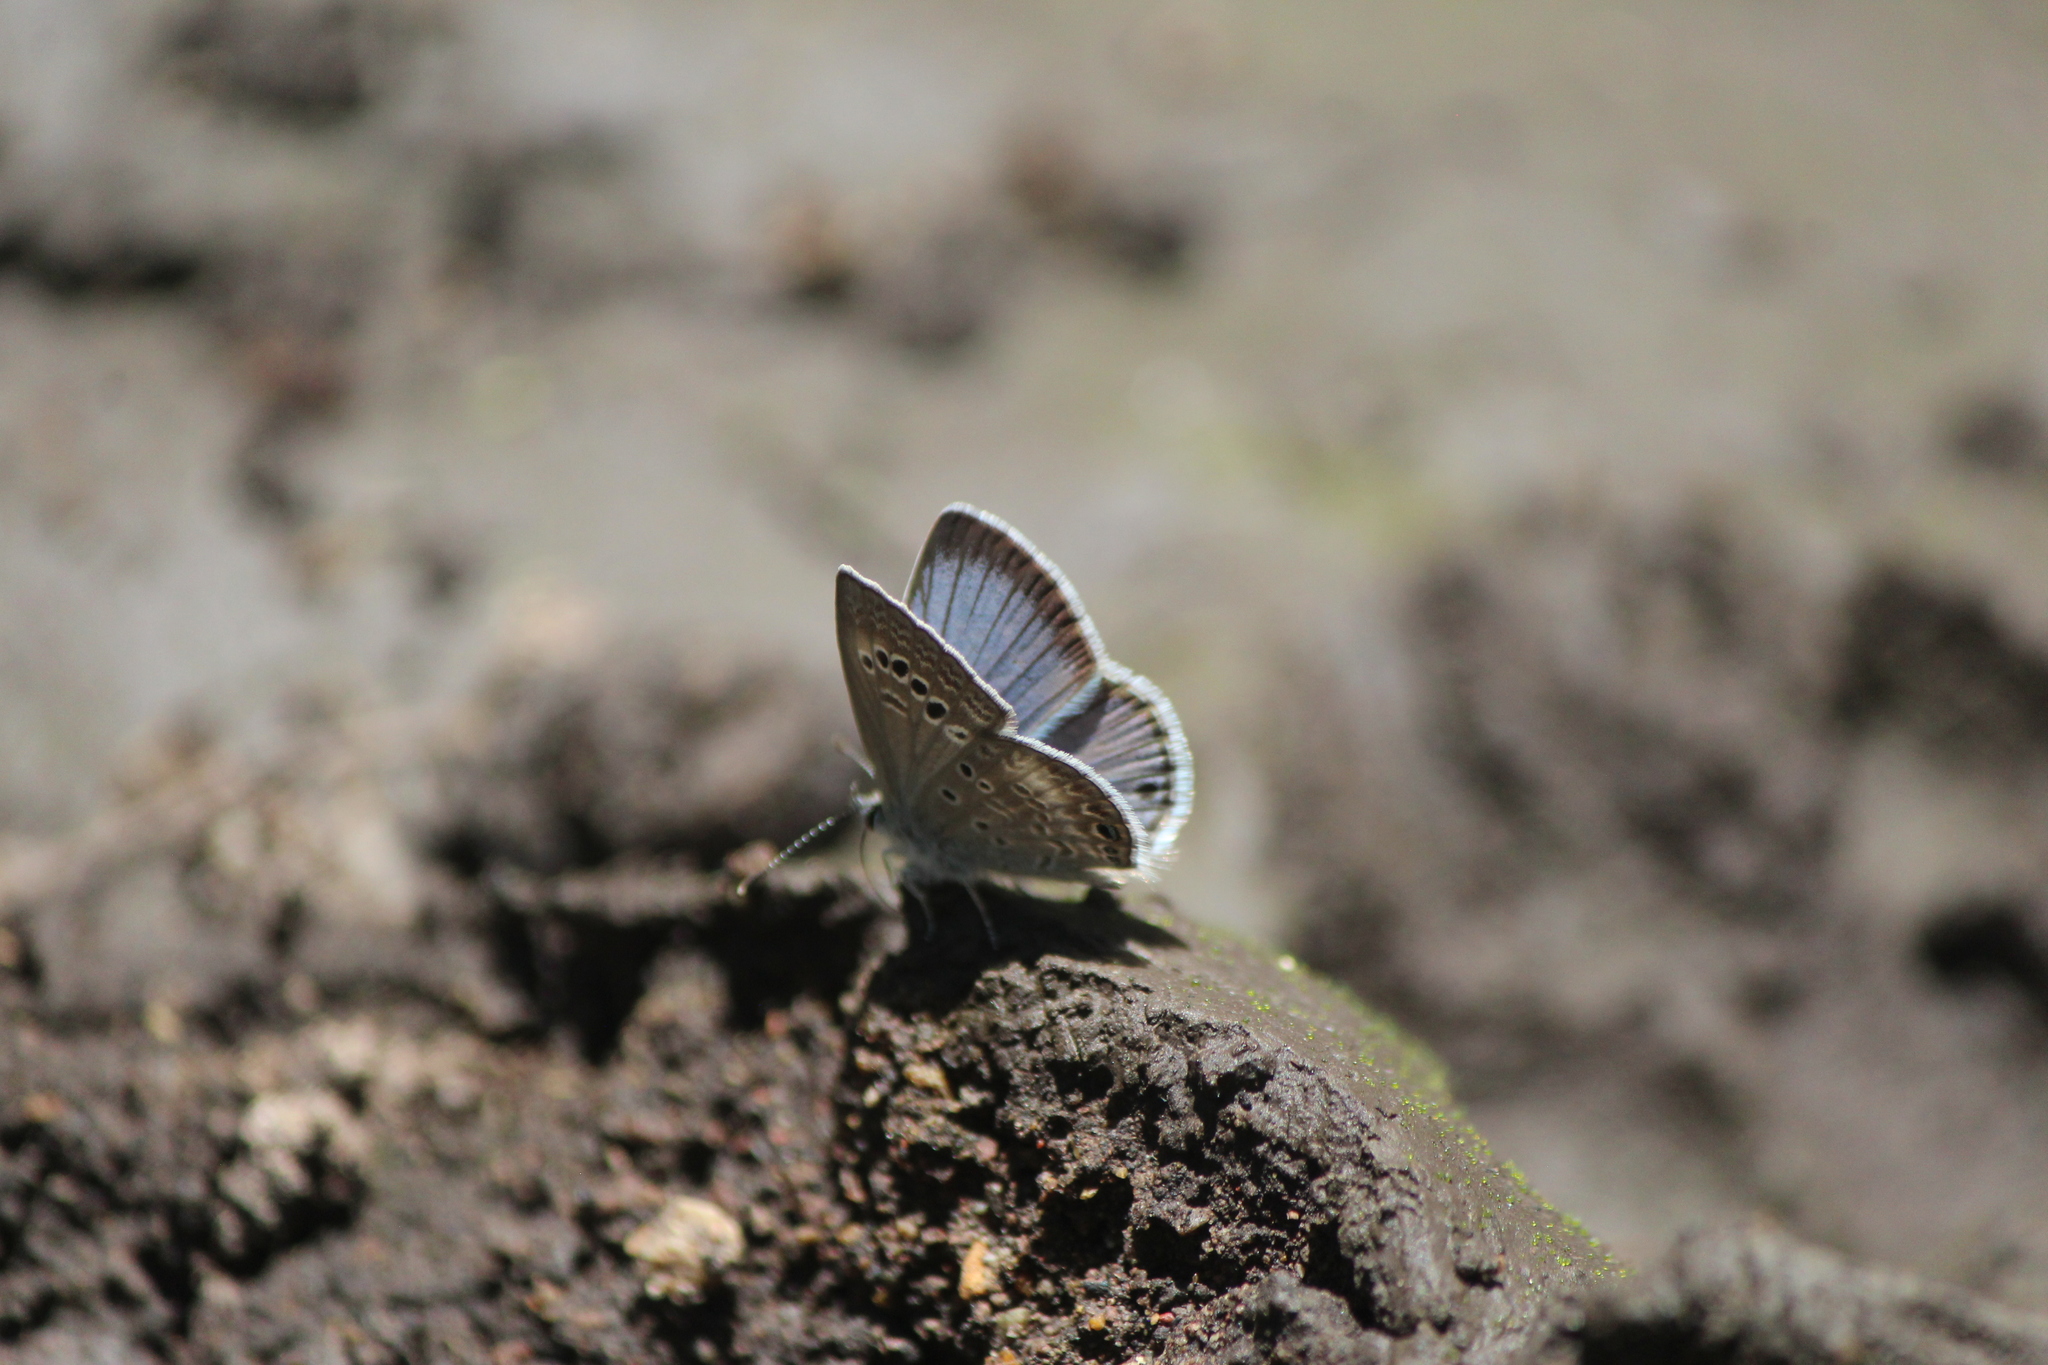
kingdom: Animalia
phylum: Arthropoda
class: Insecta
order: Lepidoptera
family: Lycaenidae
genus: Echinargus
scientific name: Echinargus isola
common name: Reakirt's blue
